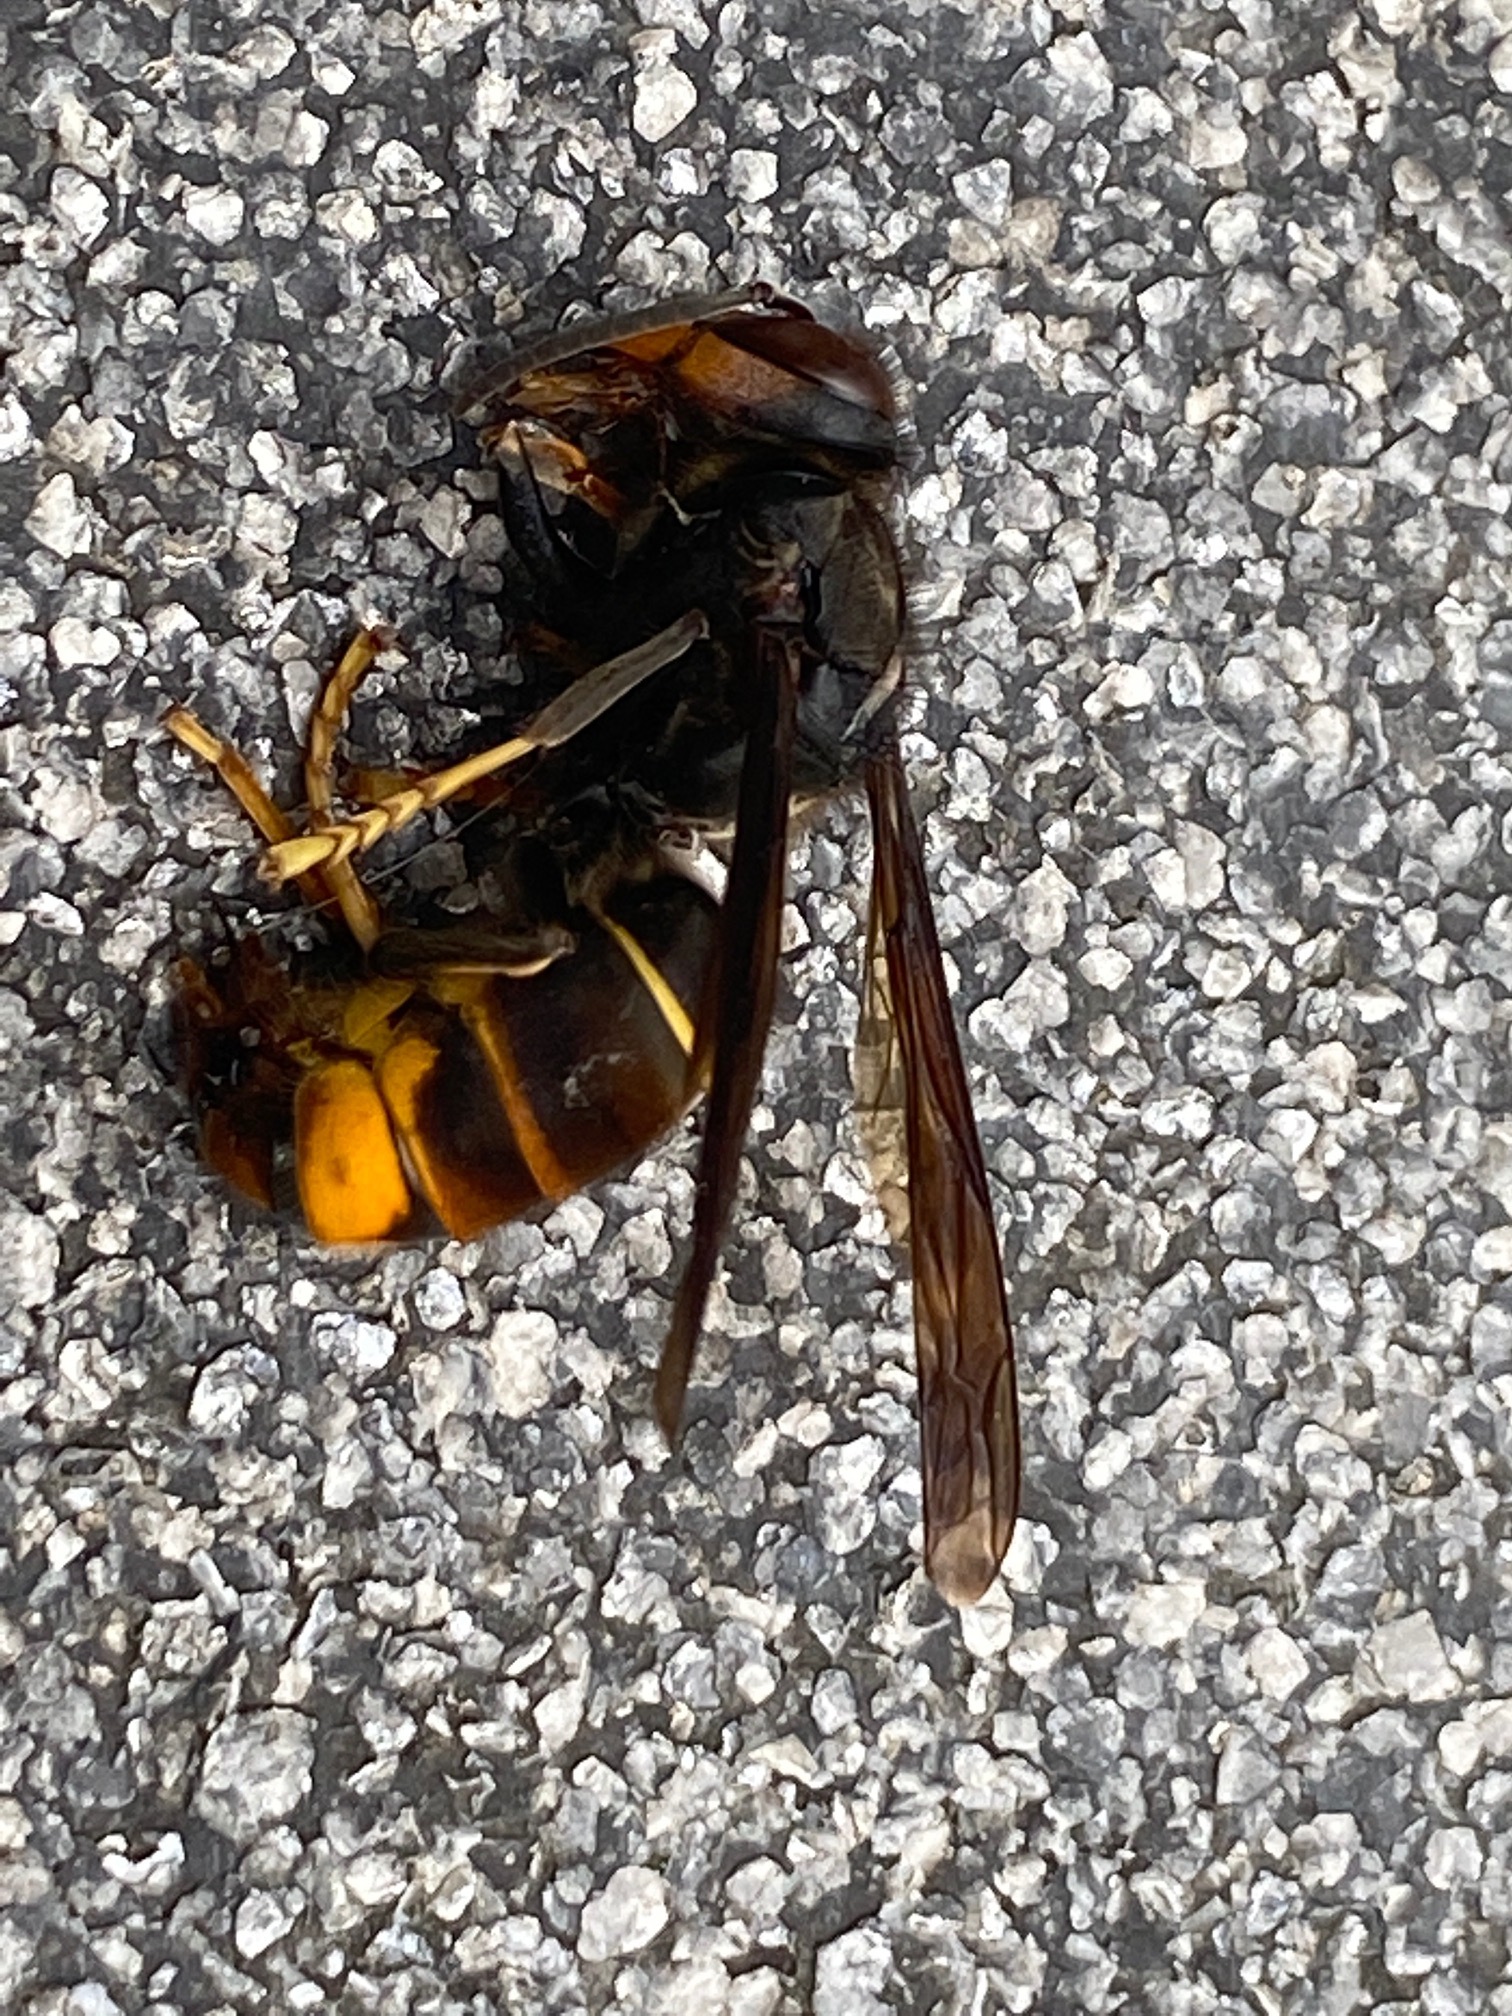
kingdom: Animalia
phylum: Arthropoda
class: Insecta
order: Hymenoptera
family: Vespidae
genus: Vespa
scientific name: Vespa velutina
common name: Asian hornet
